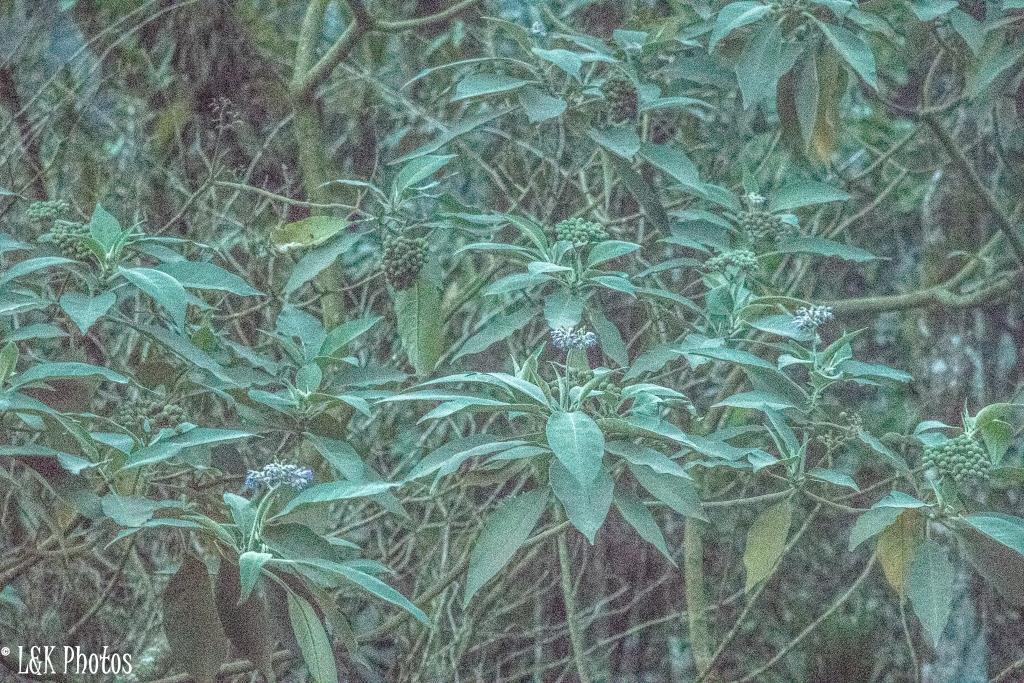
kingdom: Plantae
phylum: Tracheophyta
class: Magnoliopsida
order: Solanales
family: Solanaceae
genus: Solanum
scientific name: Solanum mauritianum
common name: Earleaf nightshade
